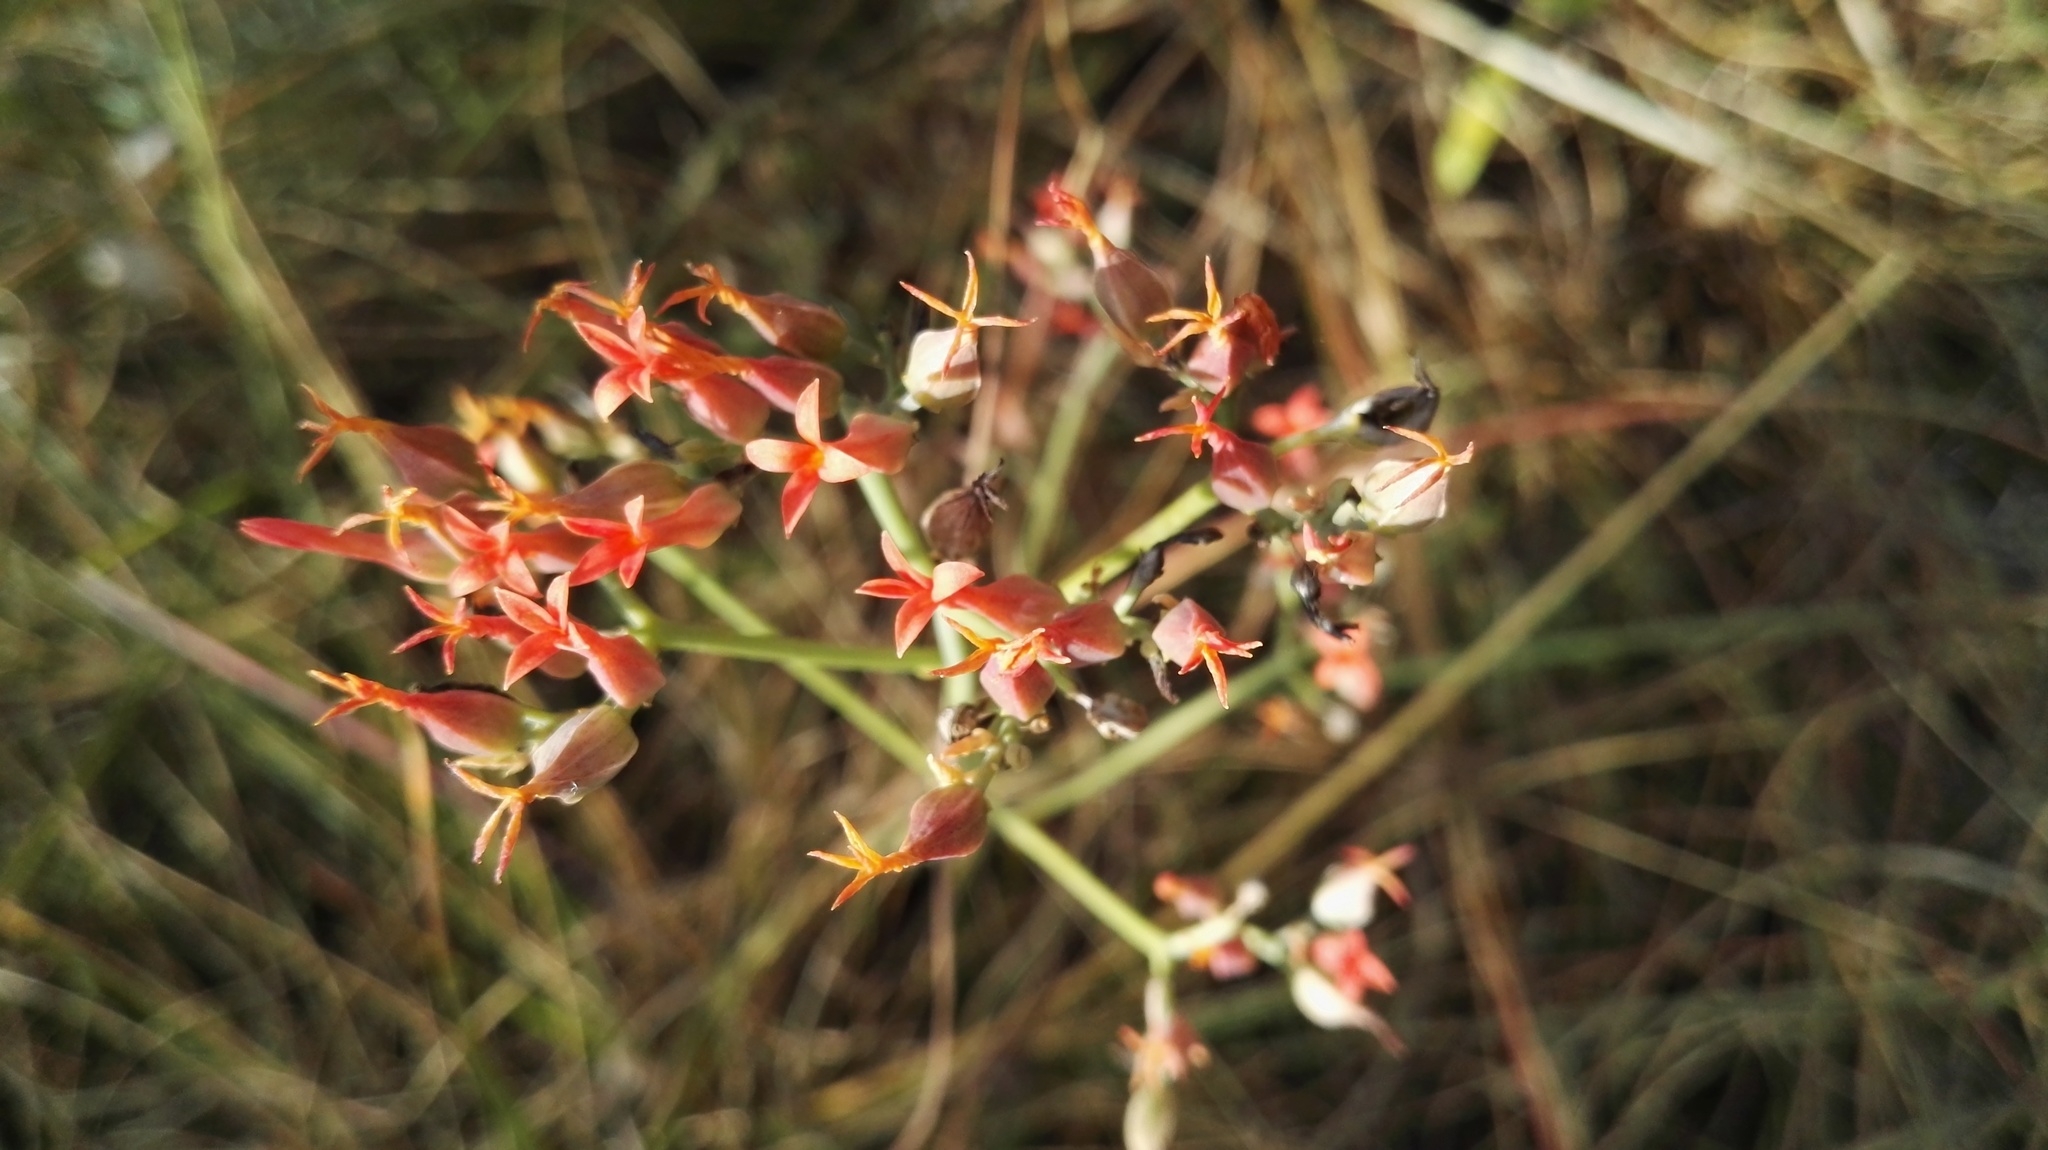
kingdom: Plantae
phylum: Tracheophyta
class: Magnoliopsida
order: Saxifragales
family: Crassulaceae
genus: Kalanchoe
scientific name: Kalanchoe rotundifolia
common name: Common kalanchoe
